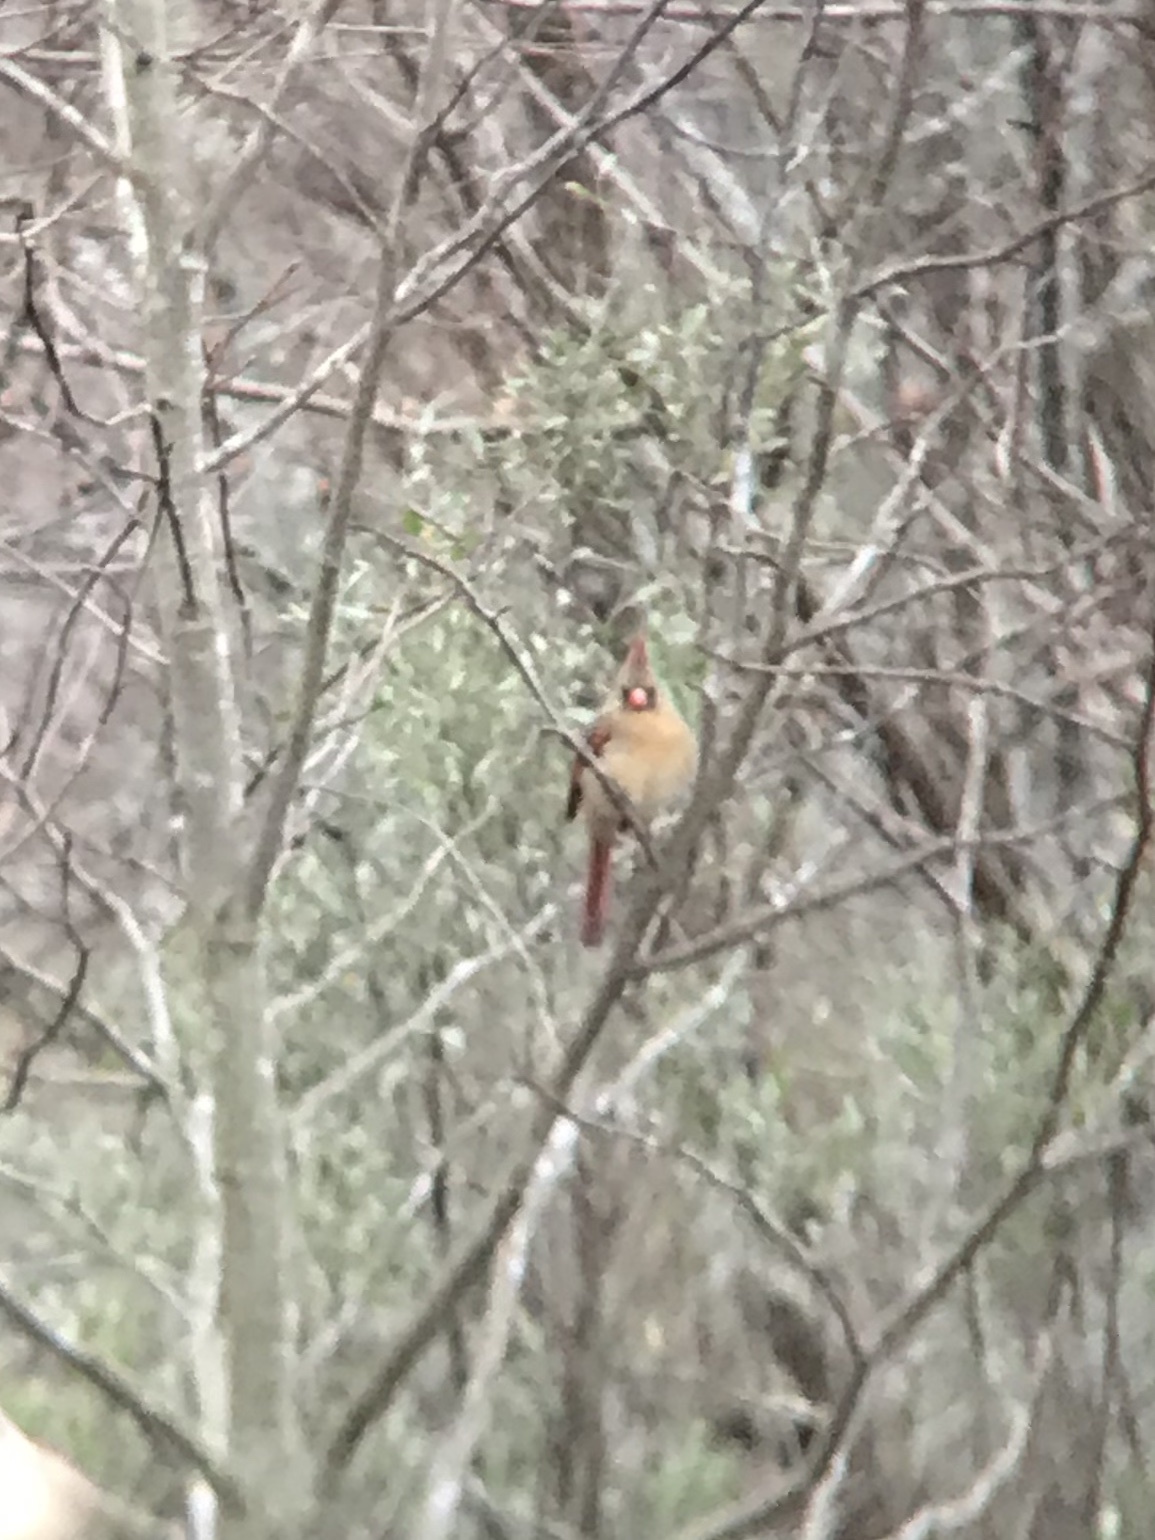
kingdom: Animalia
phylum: Chordata
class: Aves
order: Passeriformes
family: Cardinalidae
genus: Cardinalis
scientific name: Cardinalis cardinalis
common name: Northern cardinal
